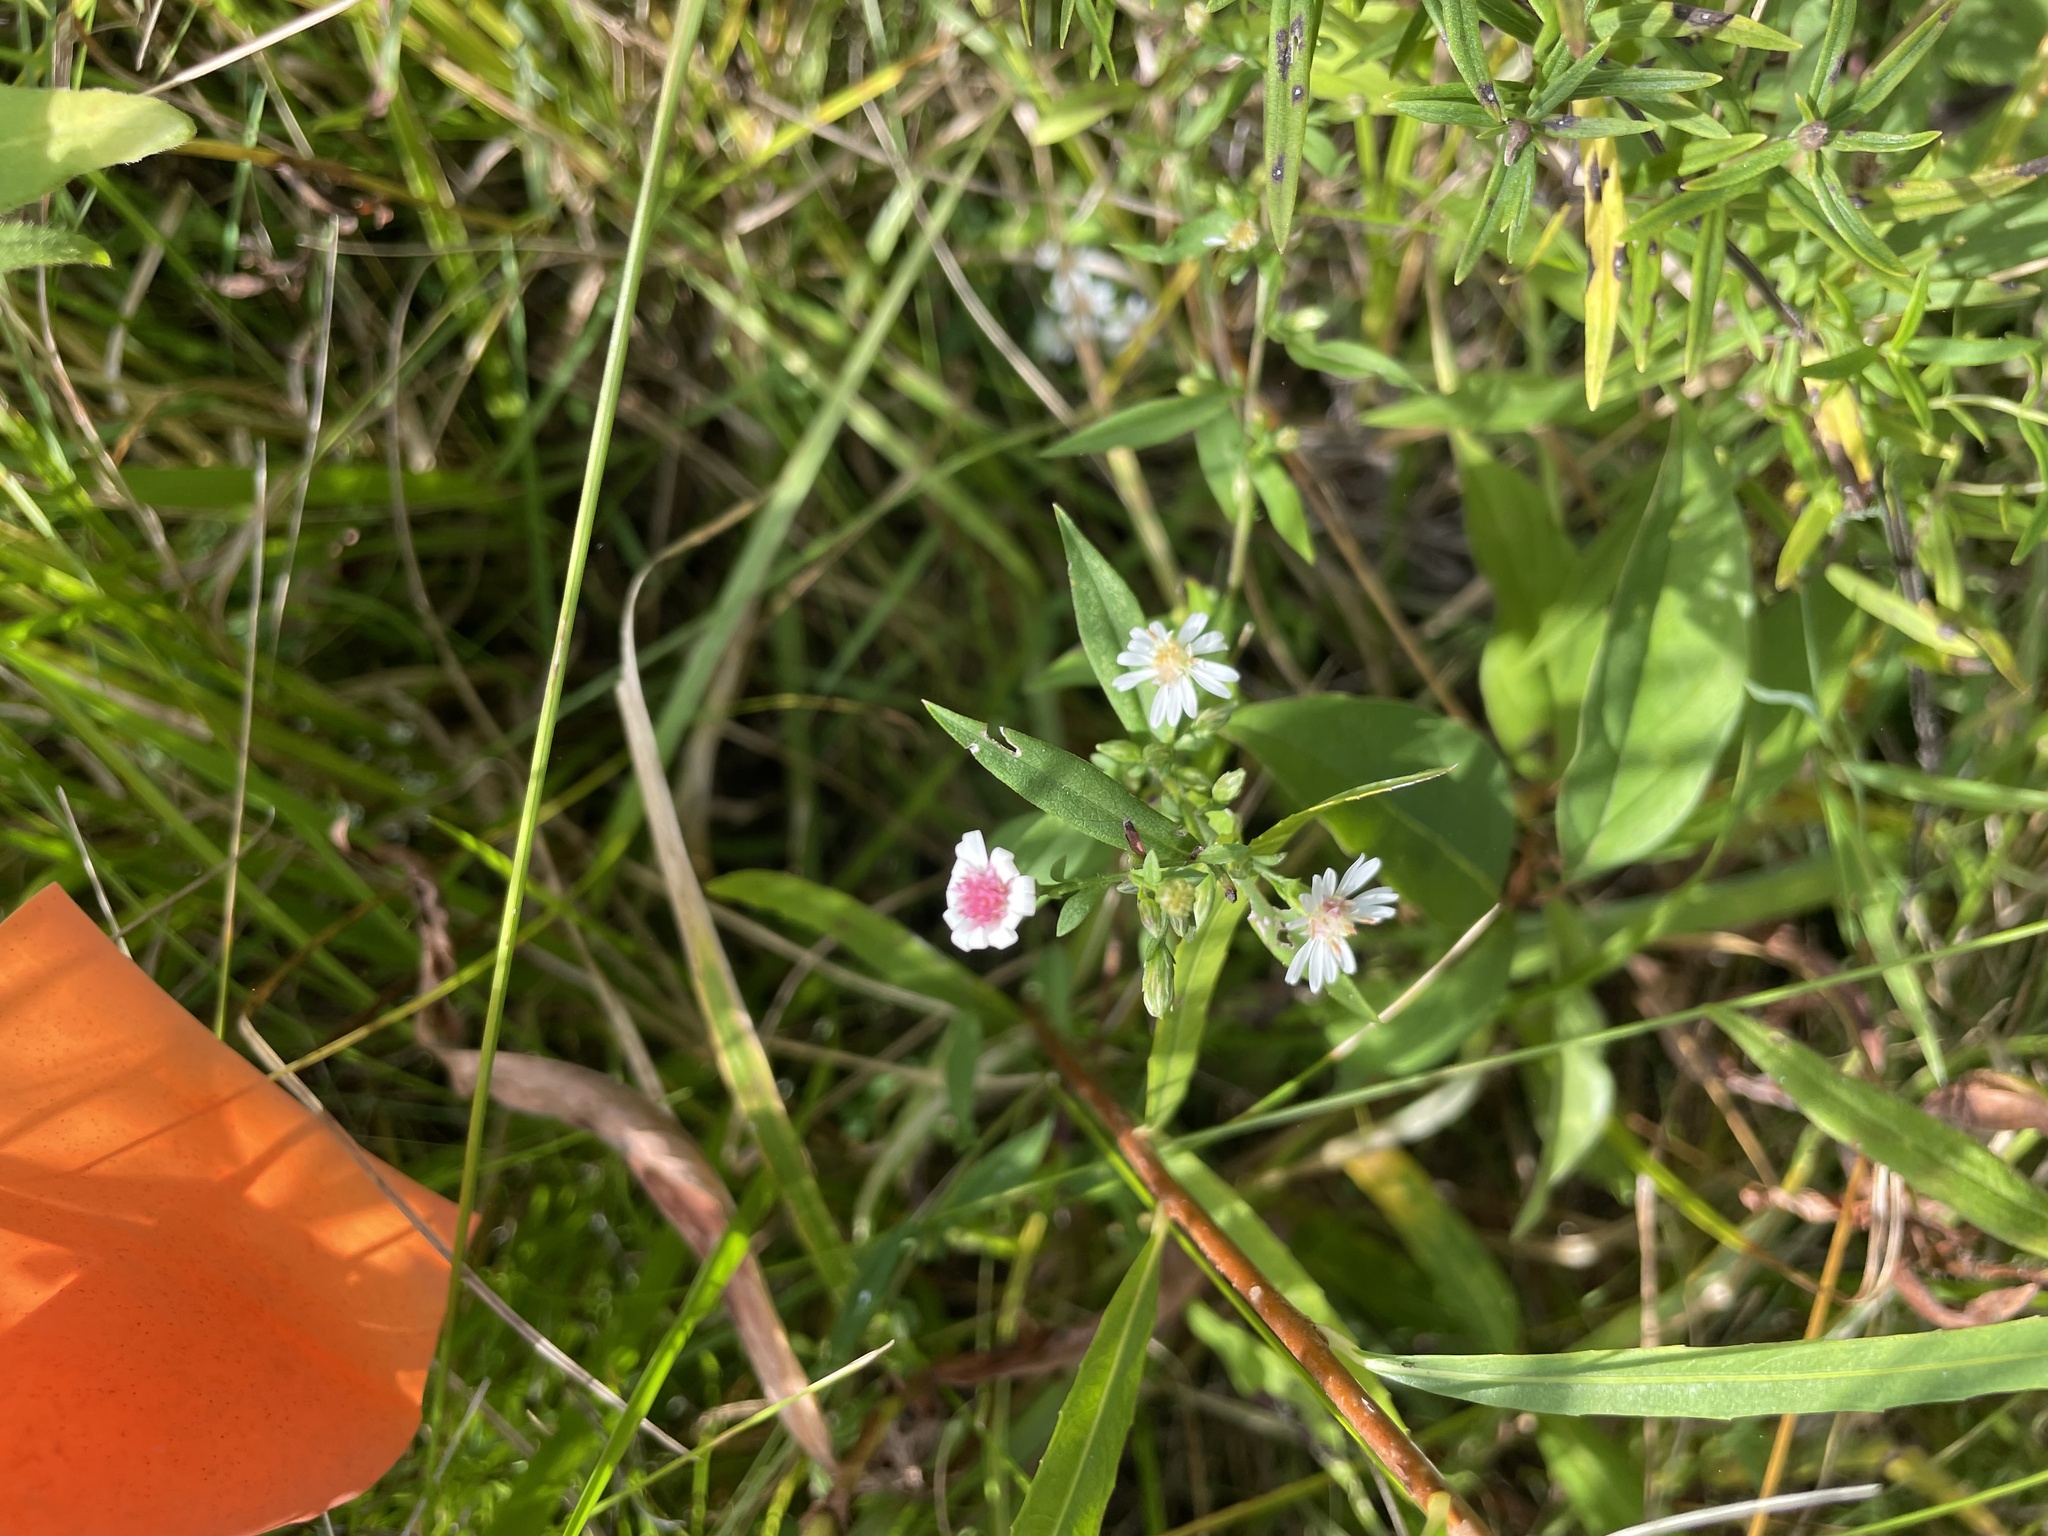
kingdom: Plantae
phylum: Tracheophyta
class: Magnoliopsida
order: Asterales
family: Asteraceae
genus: Symphyotrichum
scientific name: Symphyotrichum lateriflorum
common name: Calico aster
